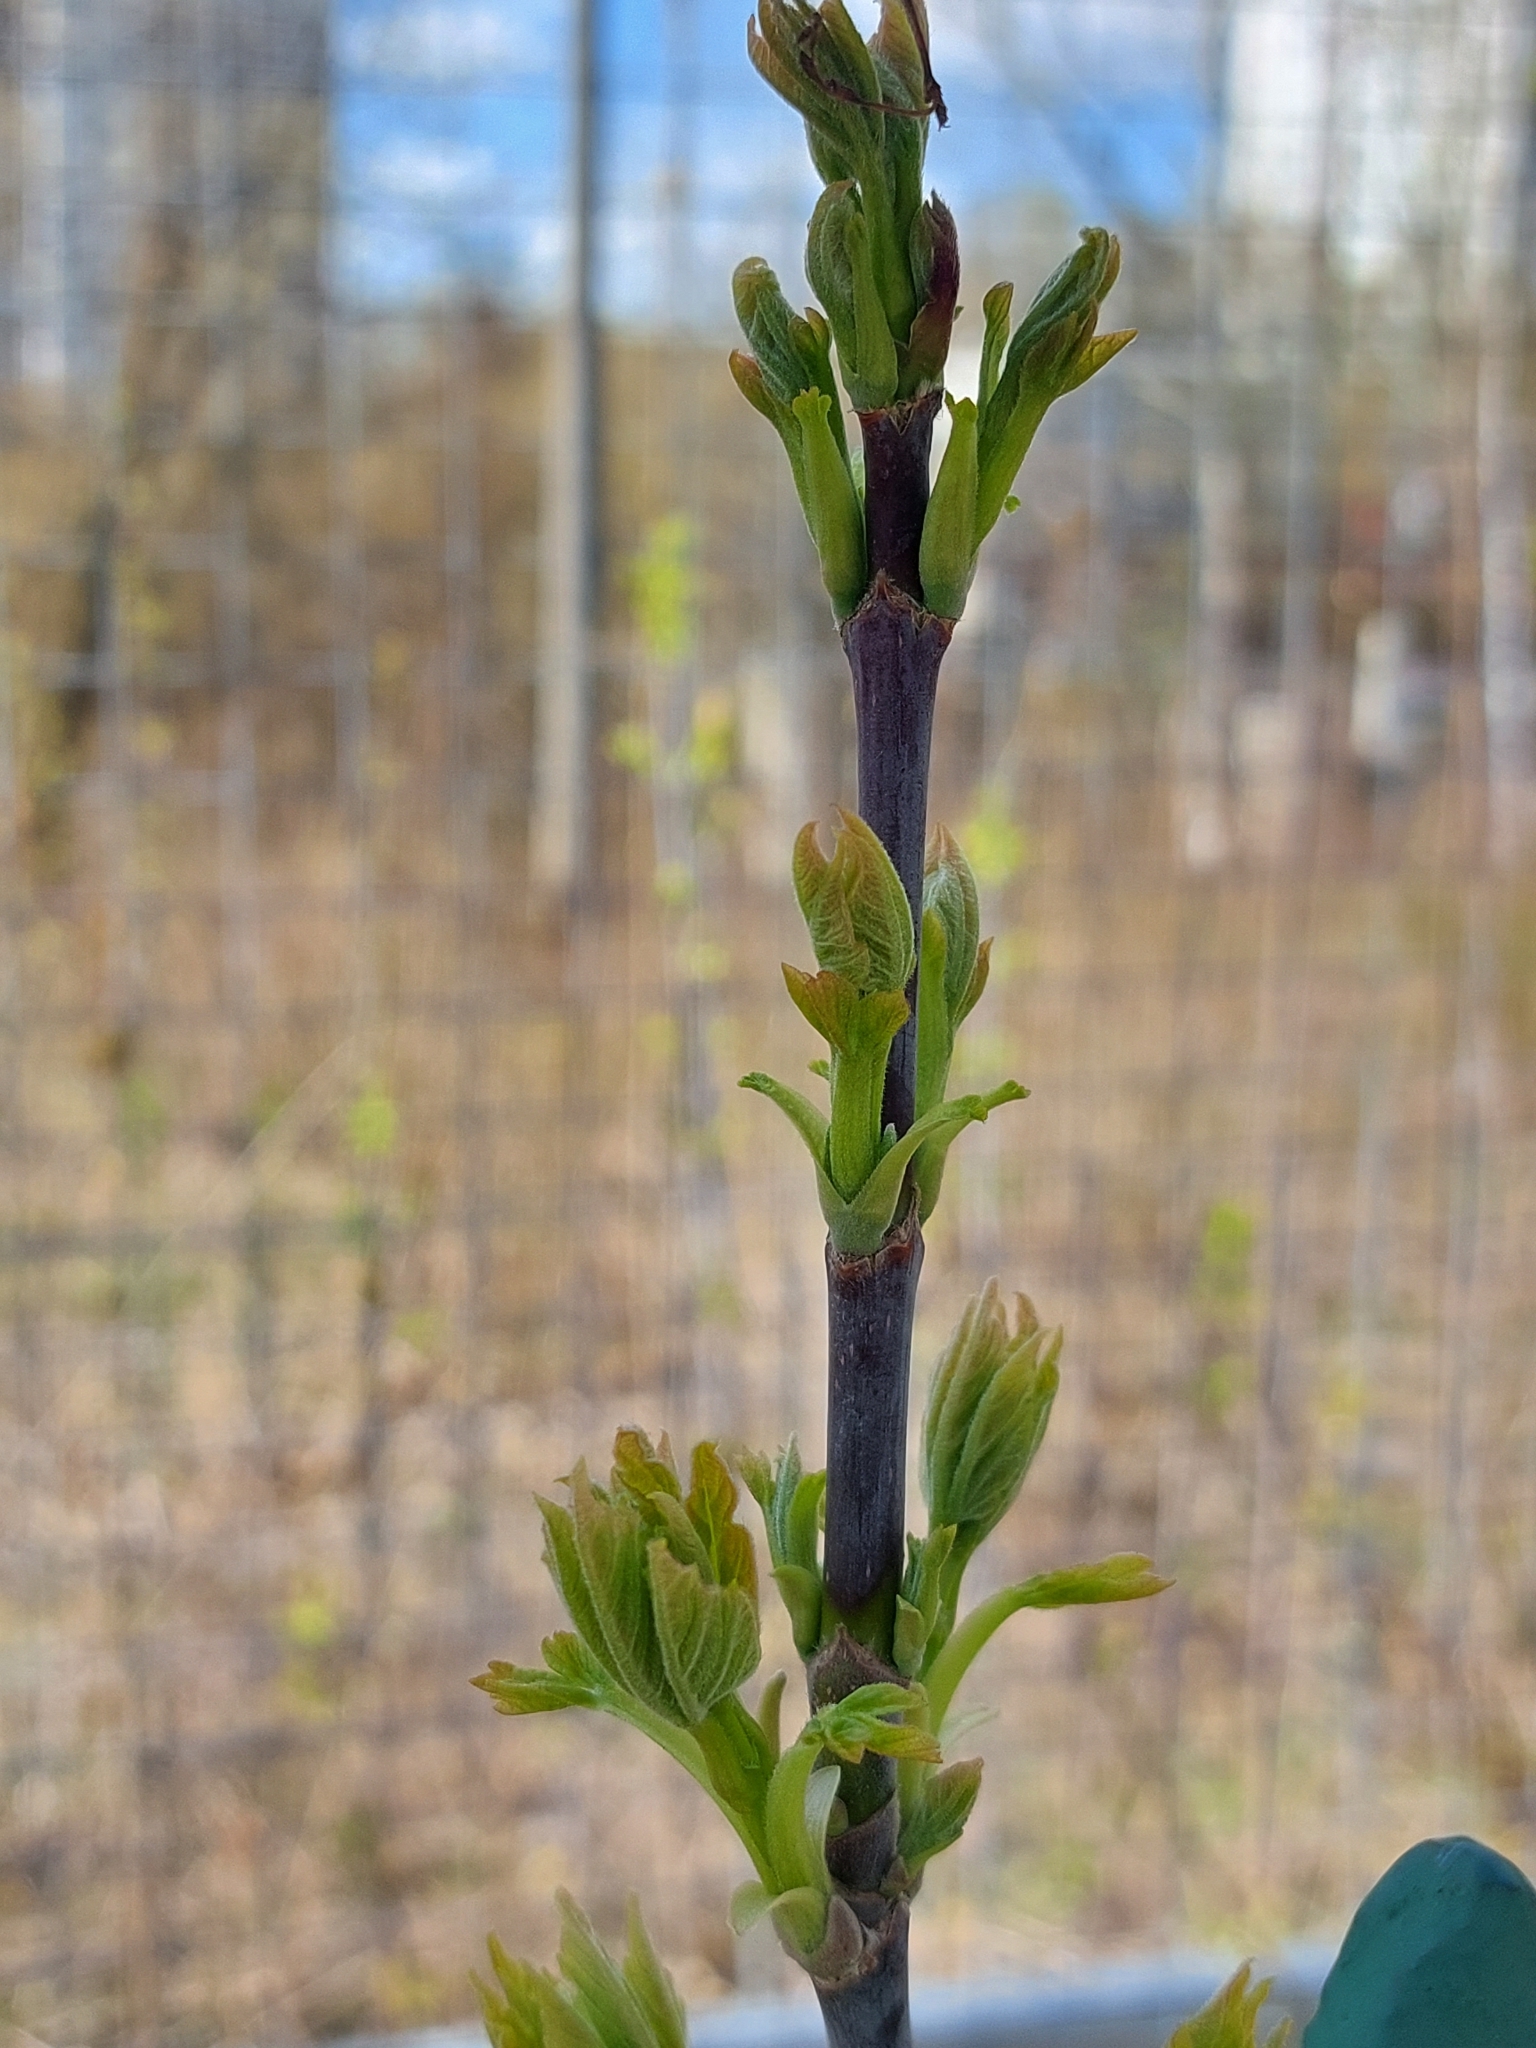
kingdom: Plantae
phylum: Tracheophyta
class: Magnoliopsida
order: Sapindales
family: Sapindaceae
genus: Acer
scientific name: Acer negundo
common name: Ashleaf maple
